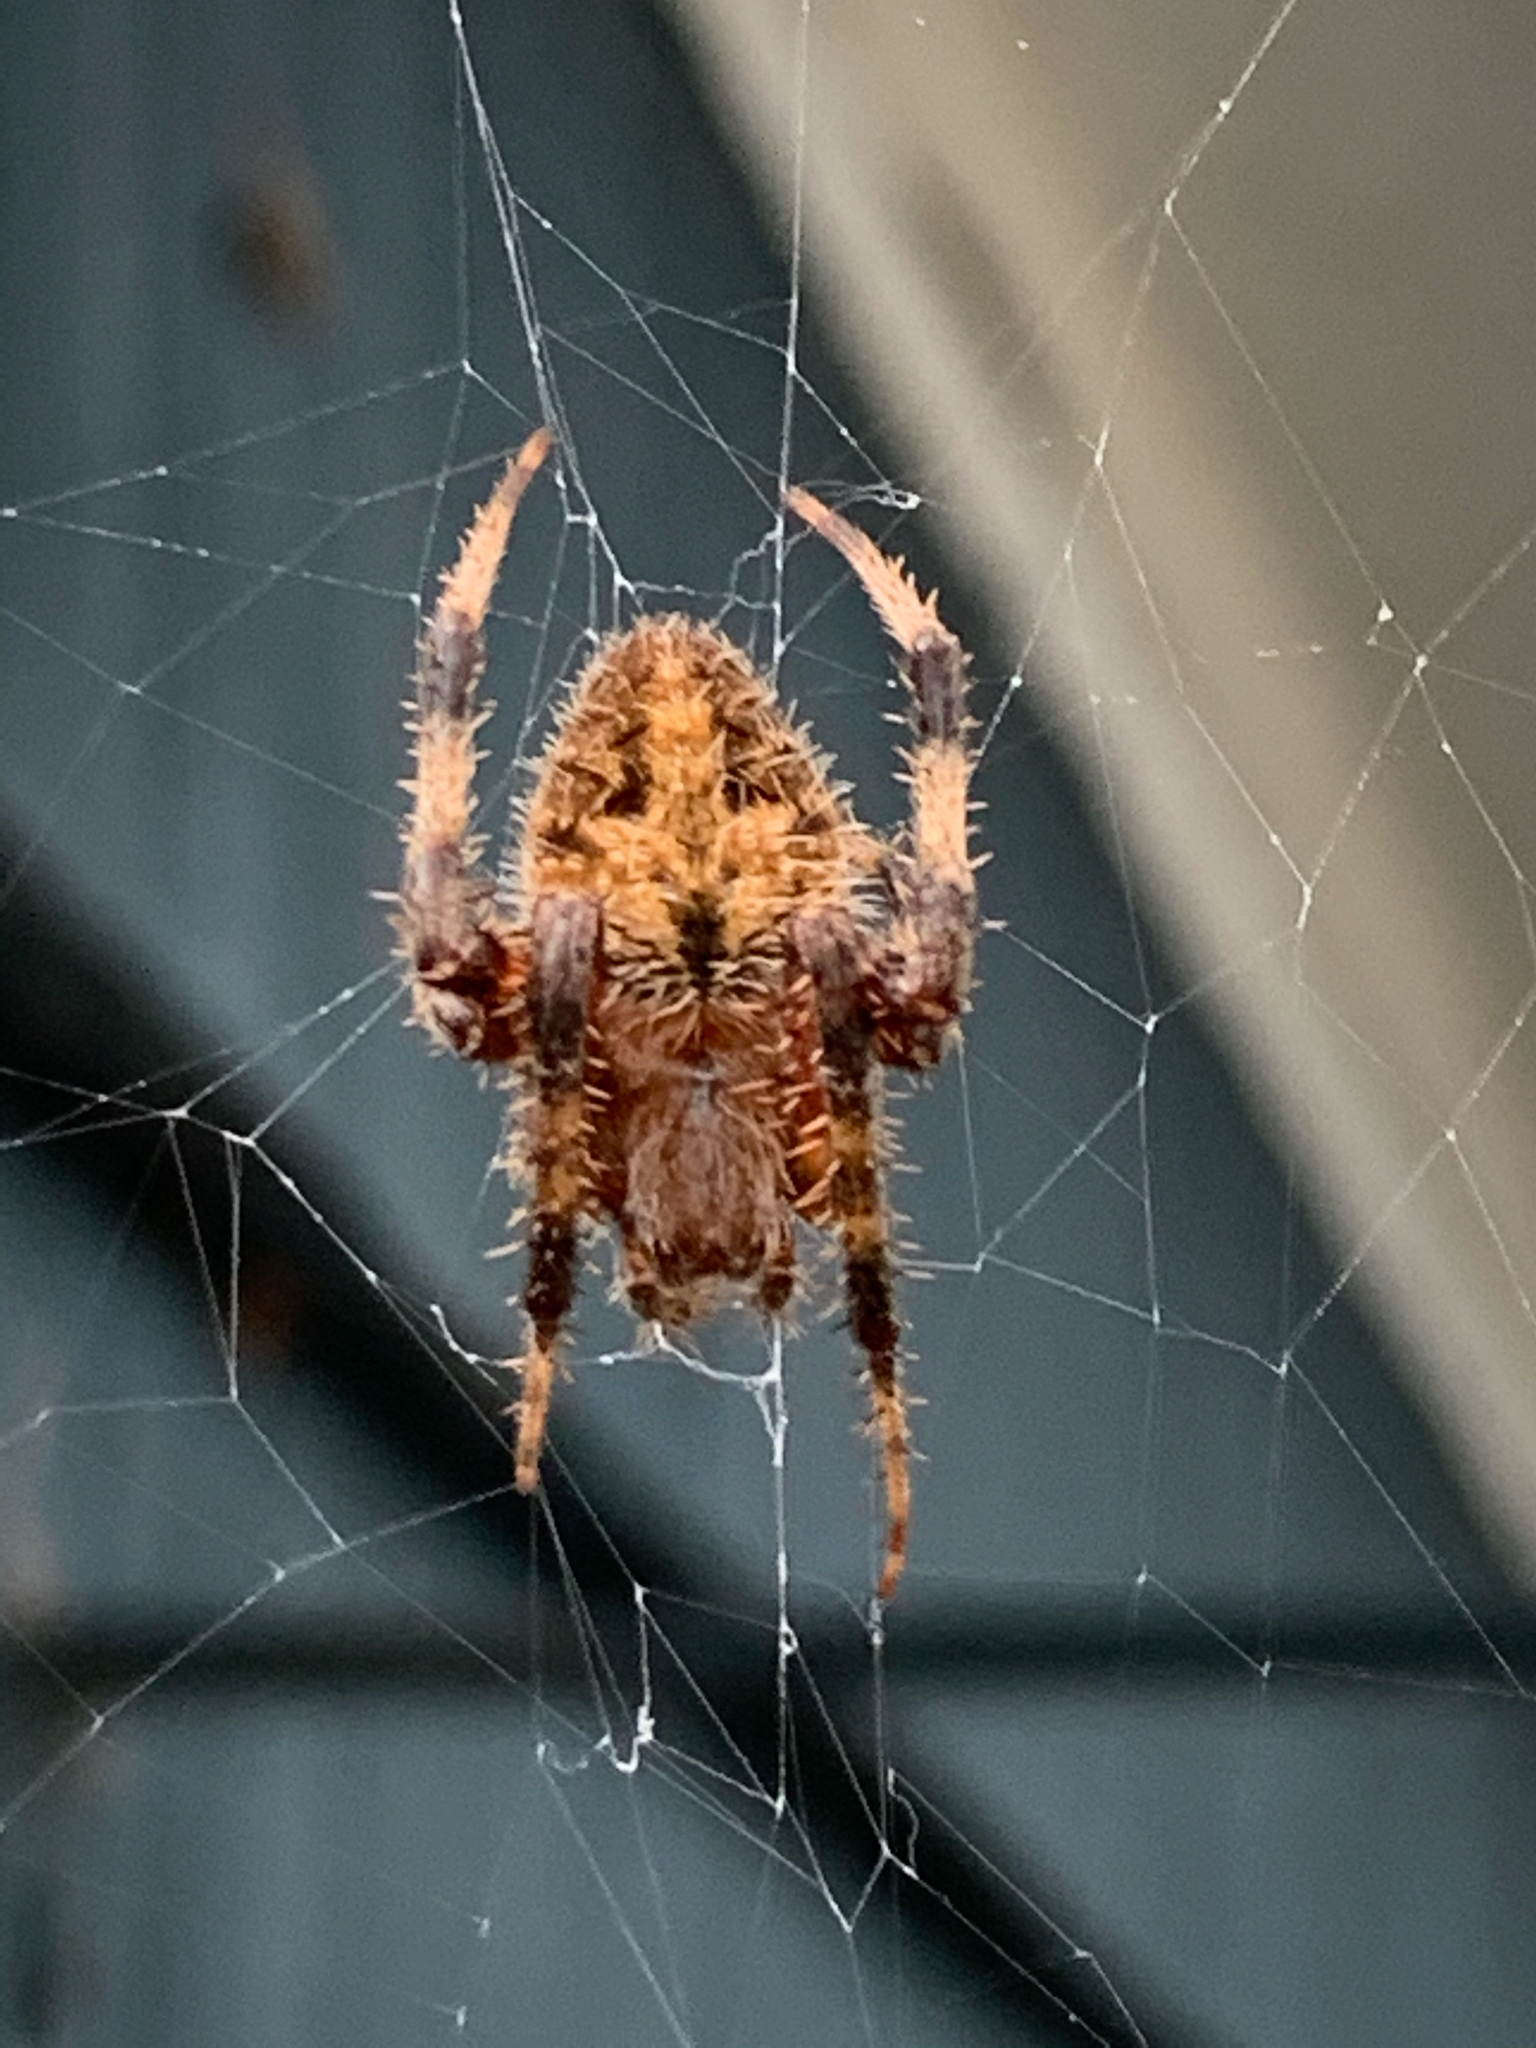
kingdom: Animalia
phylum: Arthropoda
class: Arachnida
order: Araneae
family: Araneidae
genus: Neoscona
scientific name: Neoscona crucifera
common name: Spotted orbweaver
